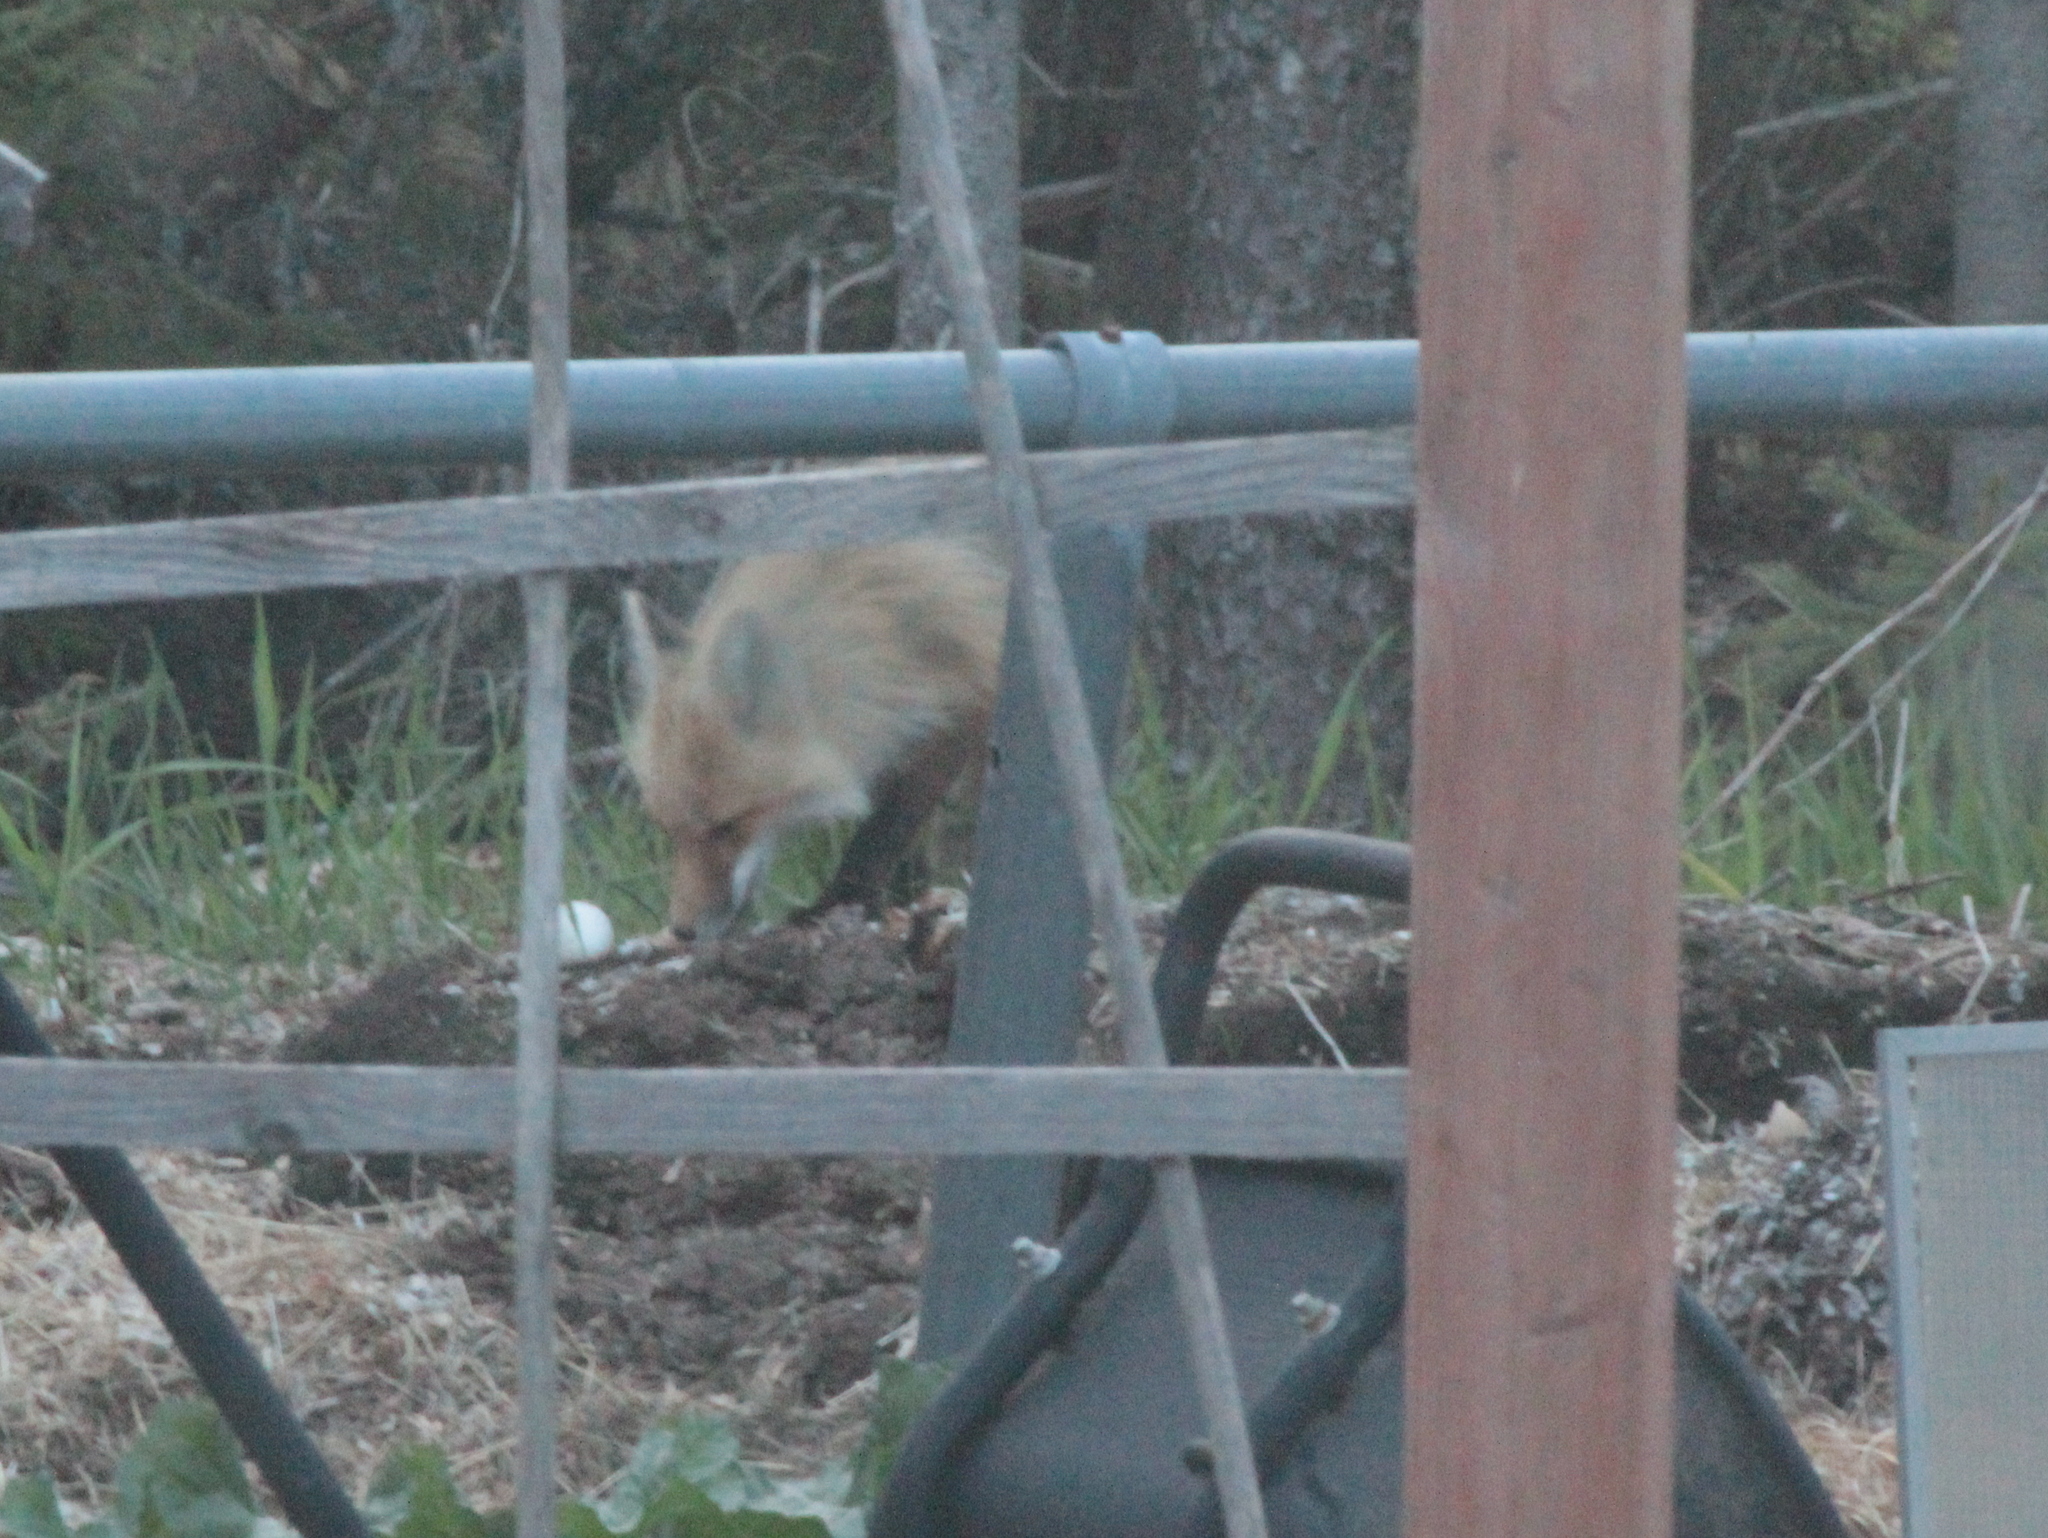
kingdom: Animalia
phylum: Chordata
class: Mammalia
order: Carnivora
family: Canidae
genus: Vulpes
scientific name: Vulpes vulpes
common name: Red fox
